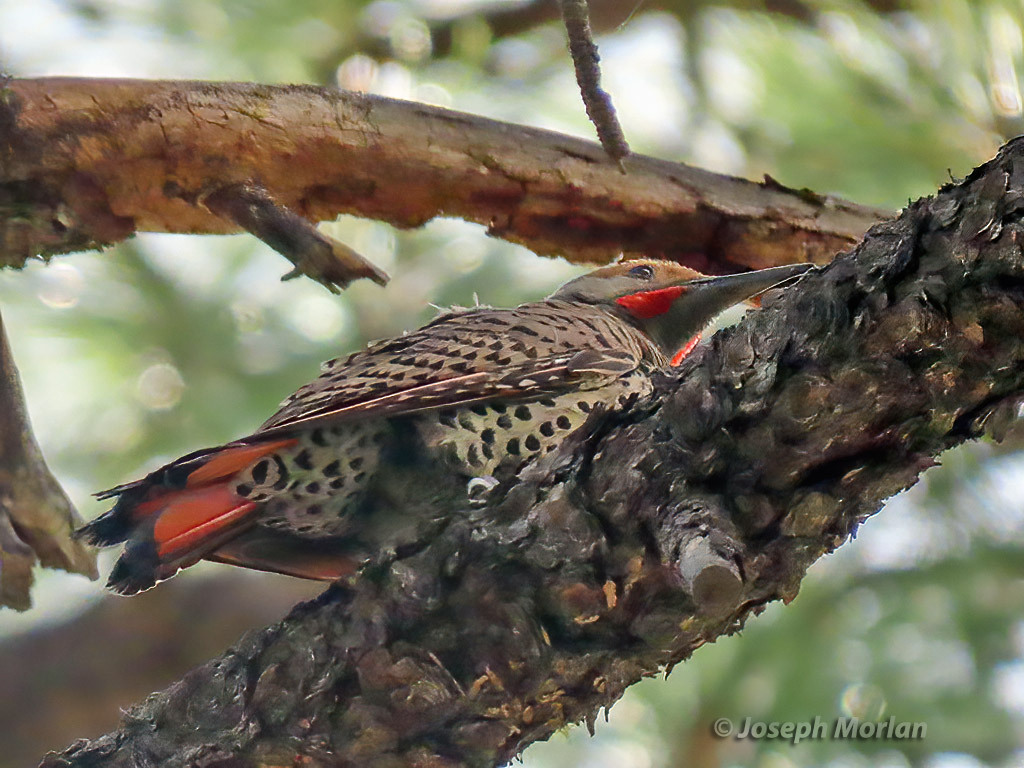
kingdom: Animalia
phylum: Chordata
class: Aves
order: Piciformes
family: Picidae
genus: Colaptes
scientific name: Colaptes auratus
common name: Northern flicker
